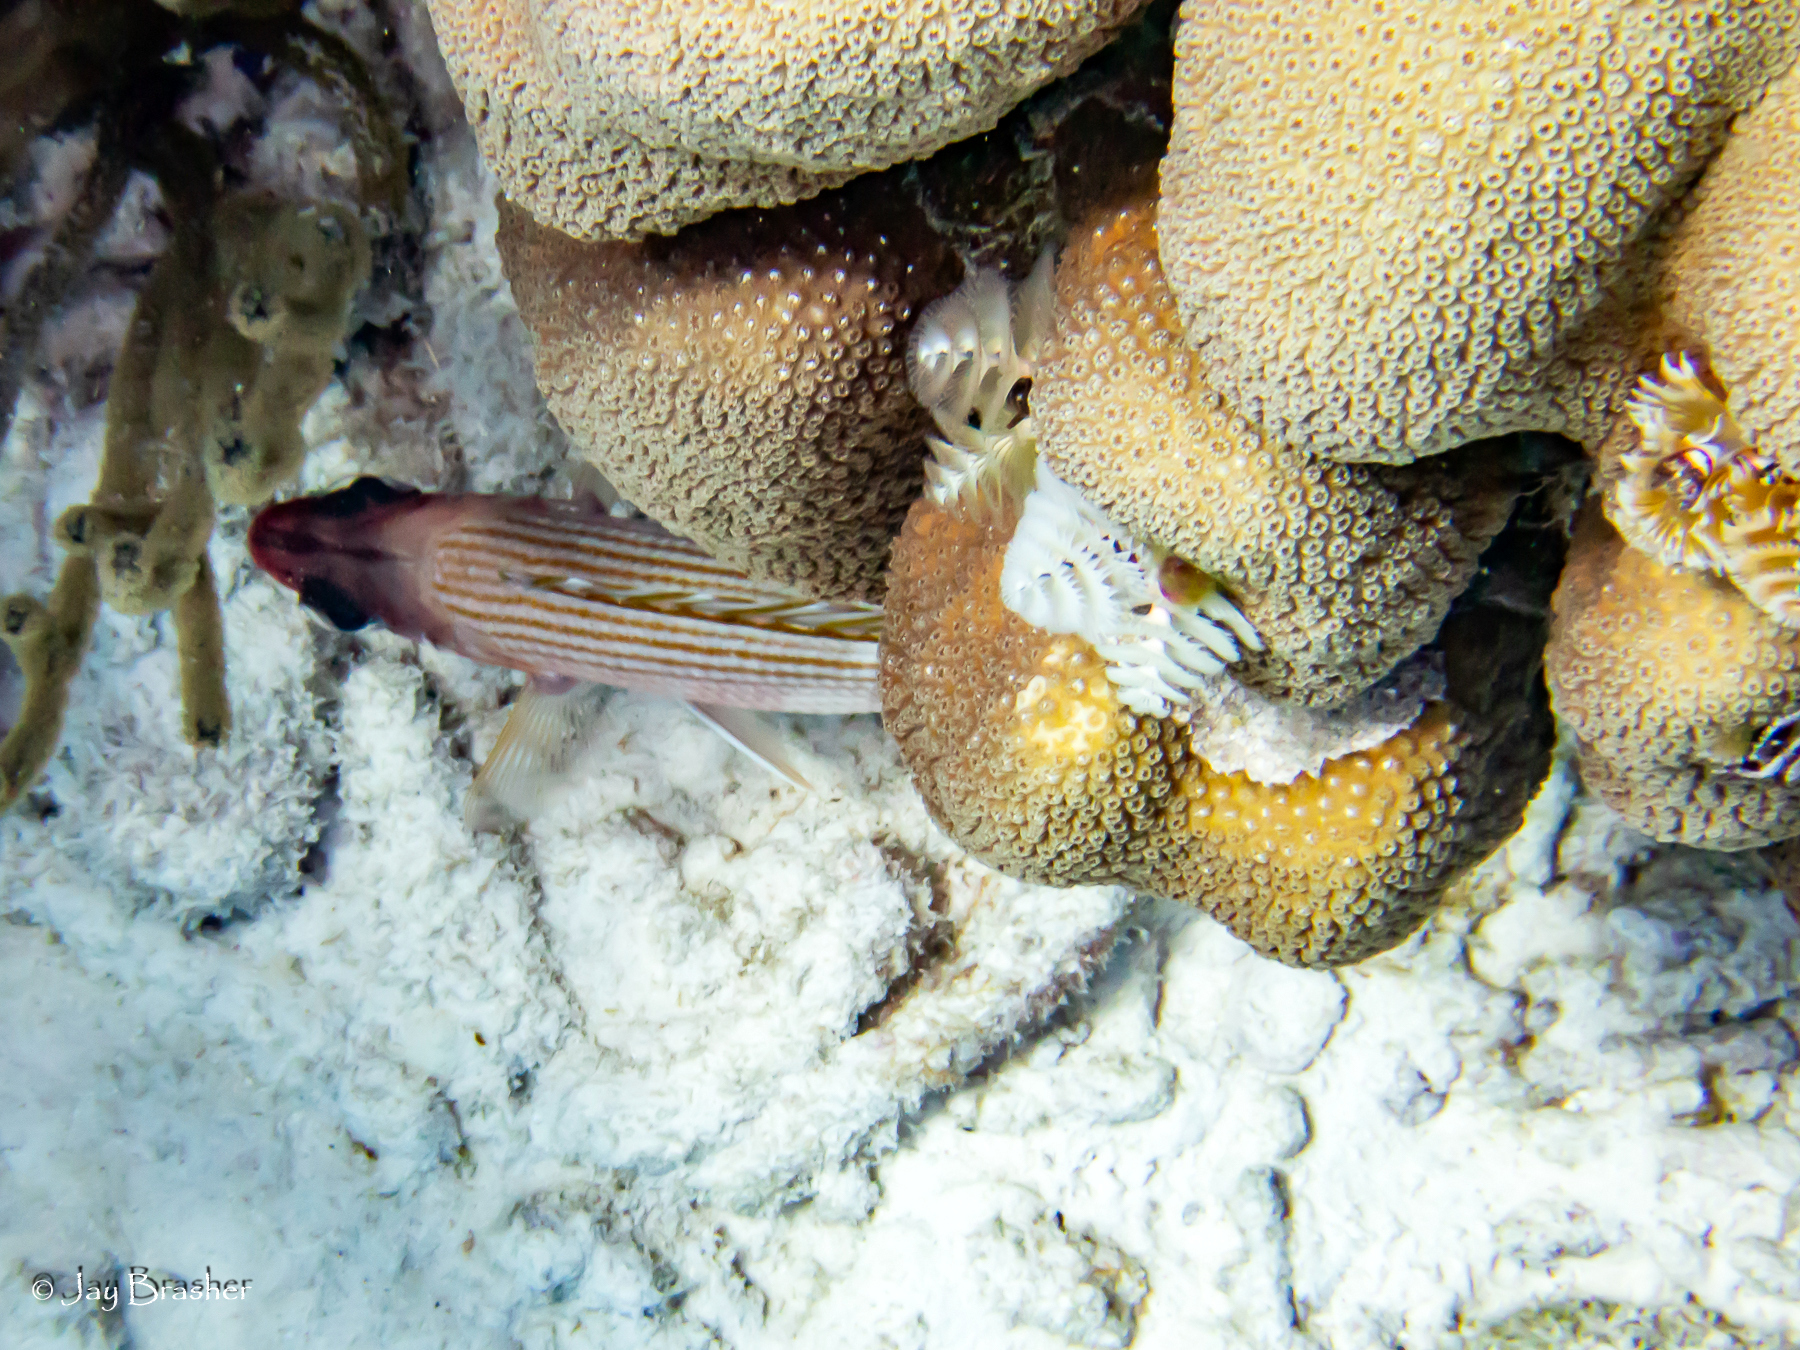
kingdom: Animalia
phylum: Annelida
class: Polychaeta
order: Sabellida
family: Serpulidae
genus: Spirobranchus
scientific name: Spirobranchus giganteus
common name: Christmas tree worm
